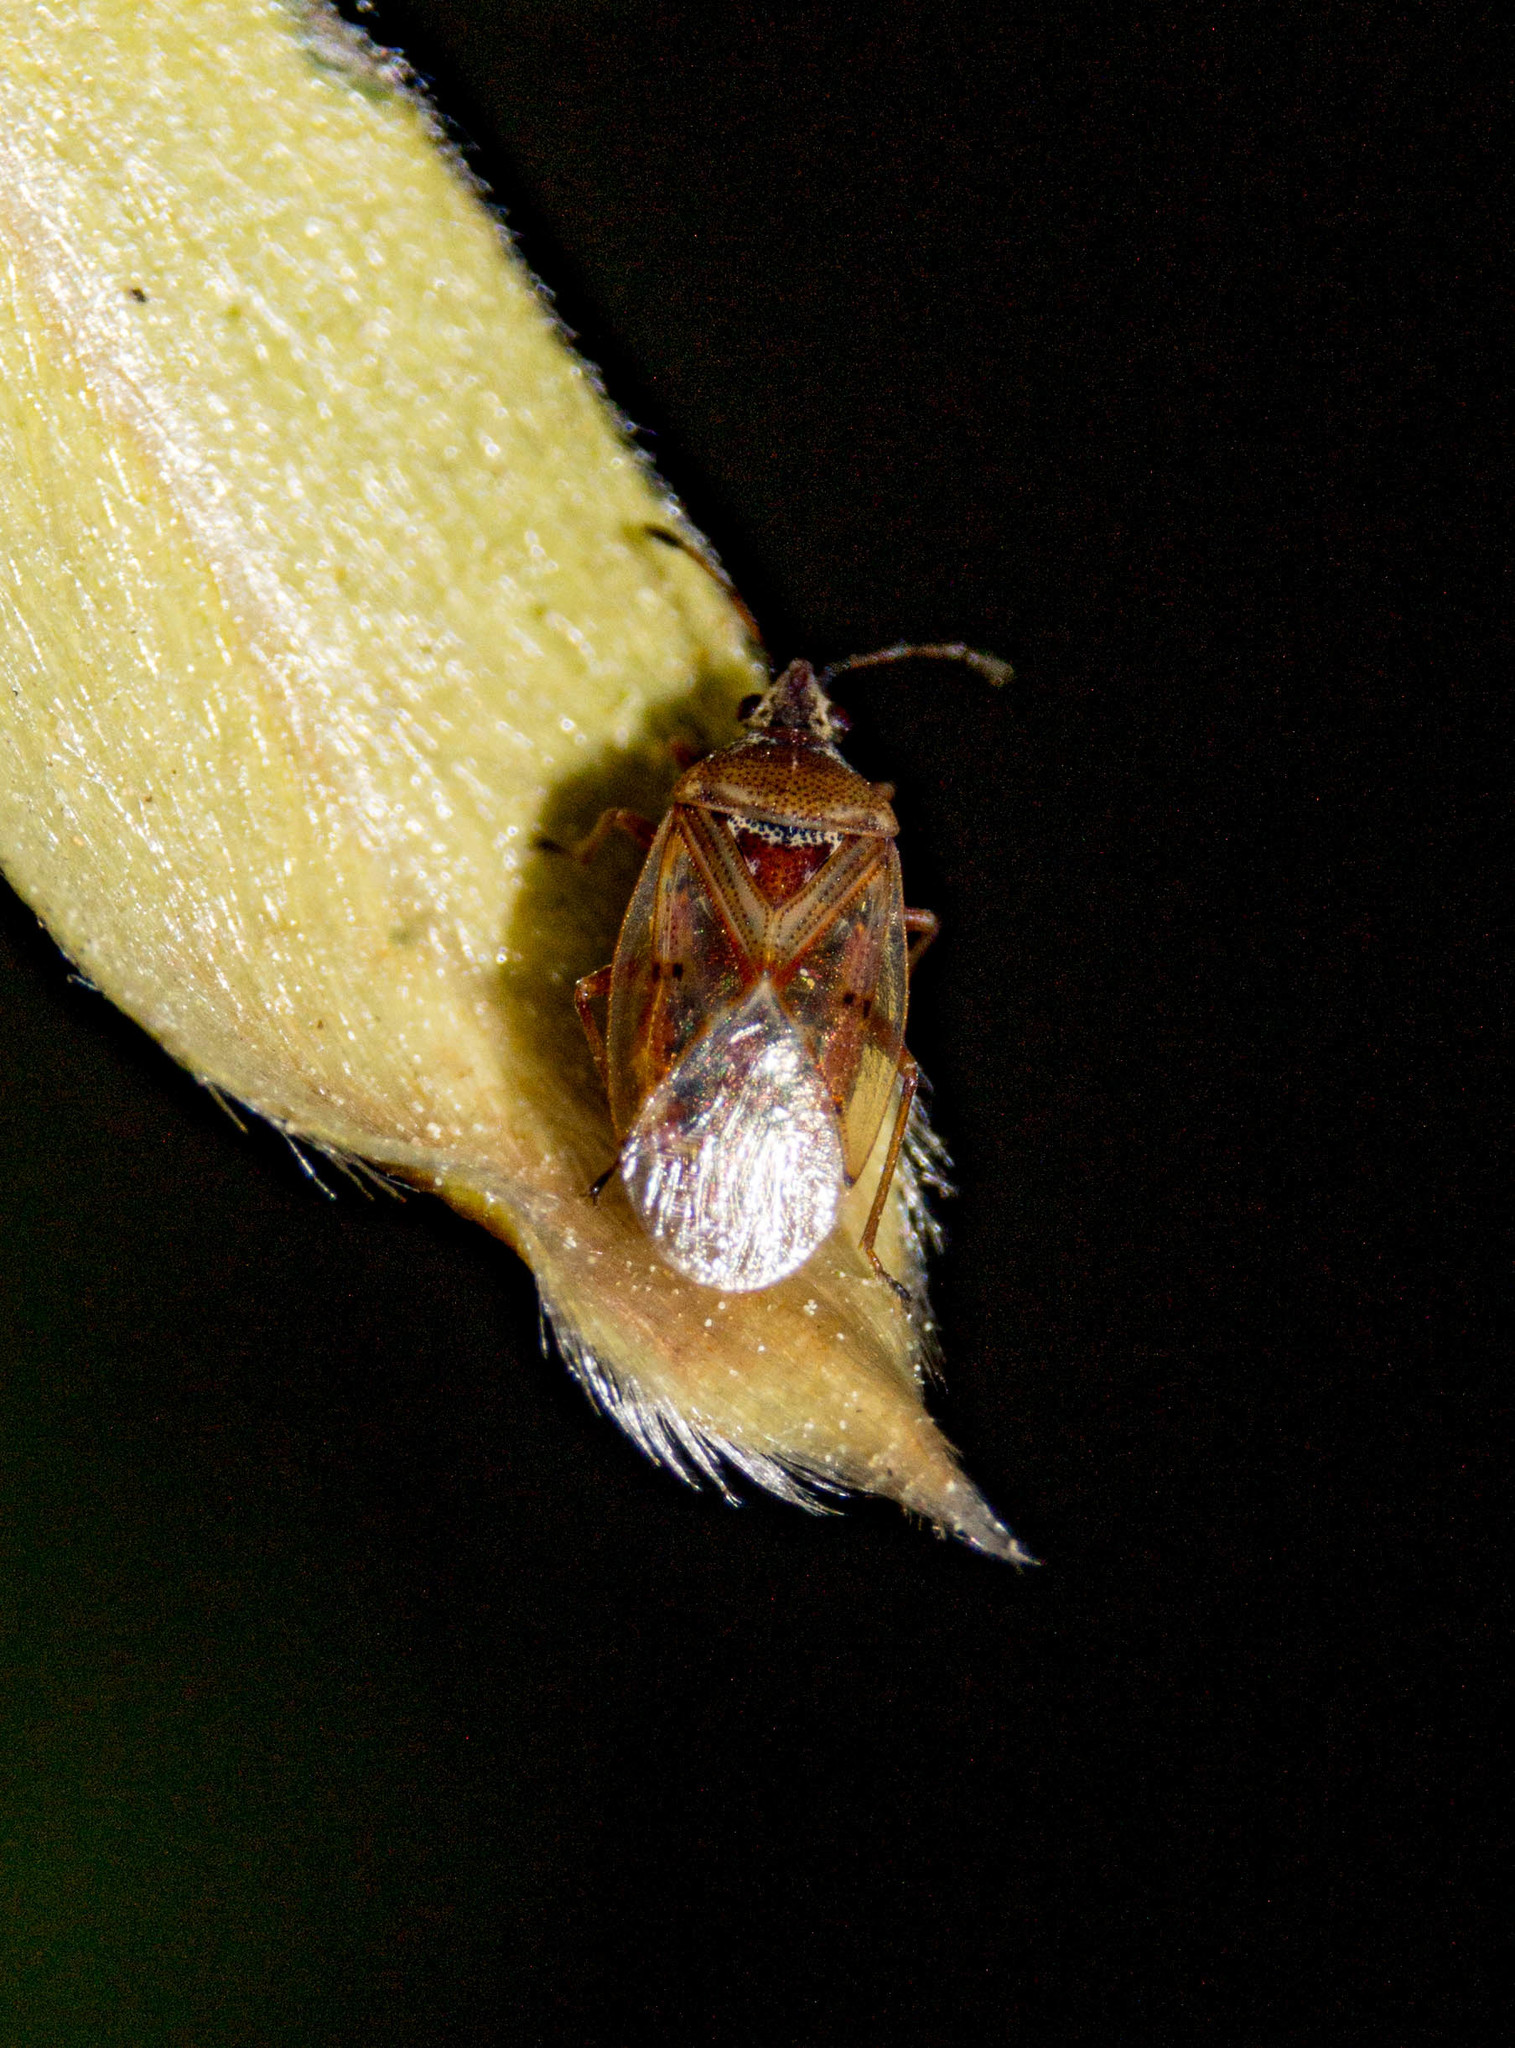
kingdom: Animalia
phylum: Arthropoda
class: Insecta
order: Hemiptera
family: Lygaeidae
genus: Kleidocerys
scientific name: Kleidocerys resedae
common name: Birch catkin bug
